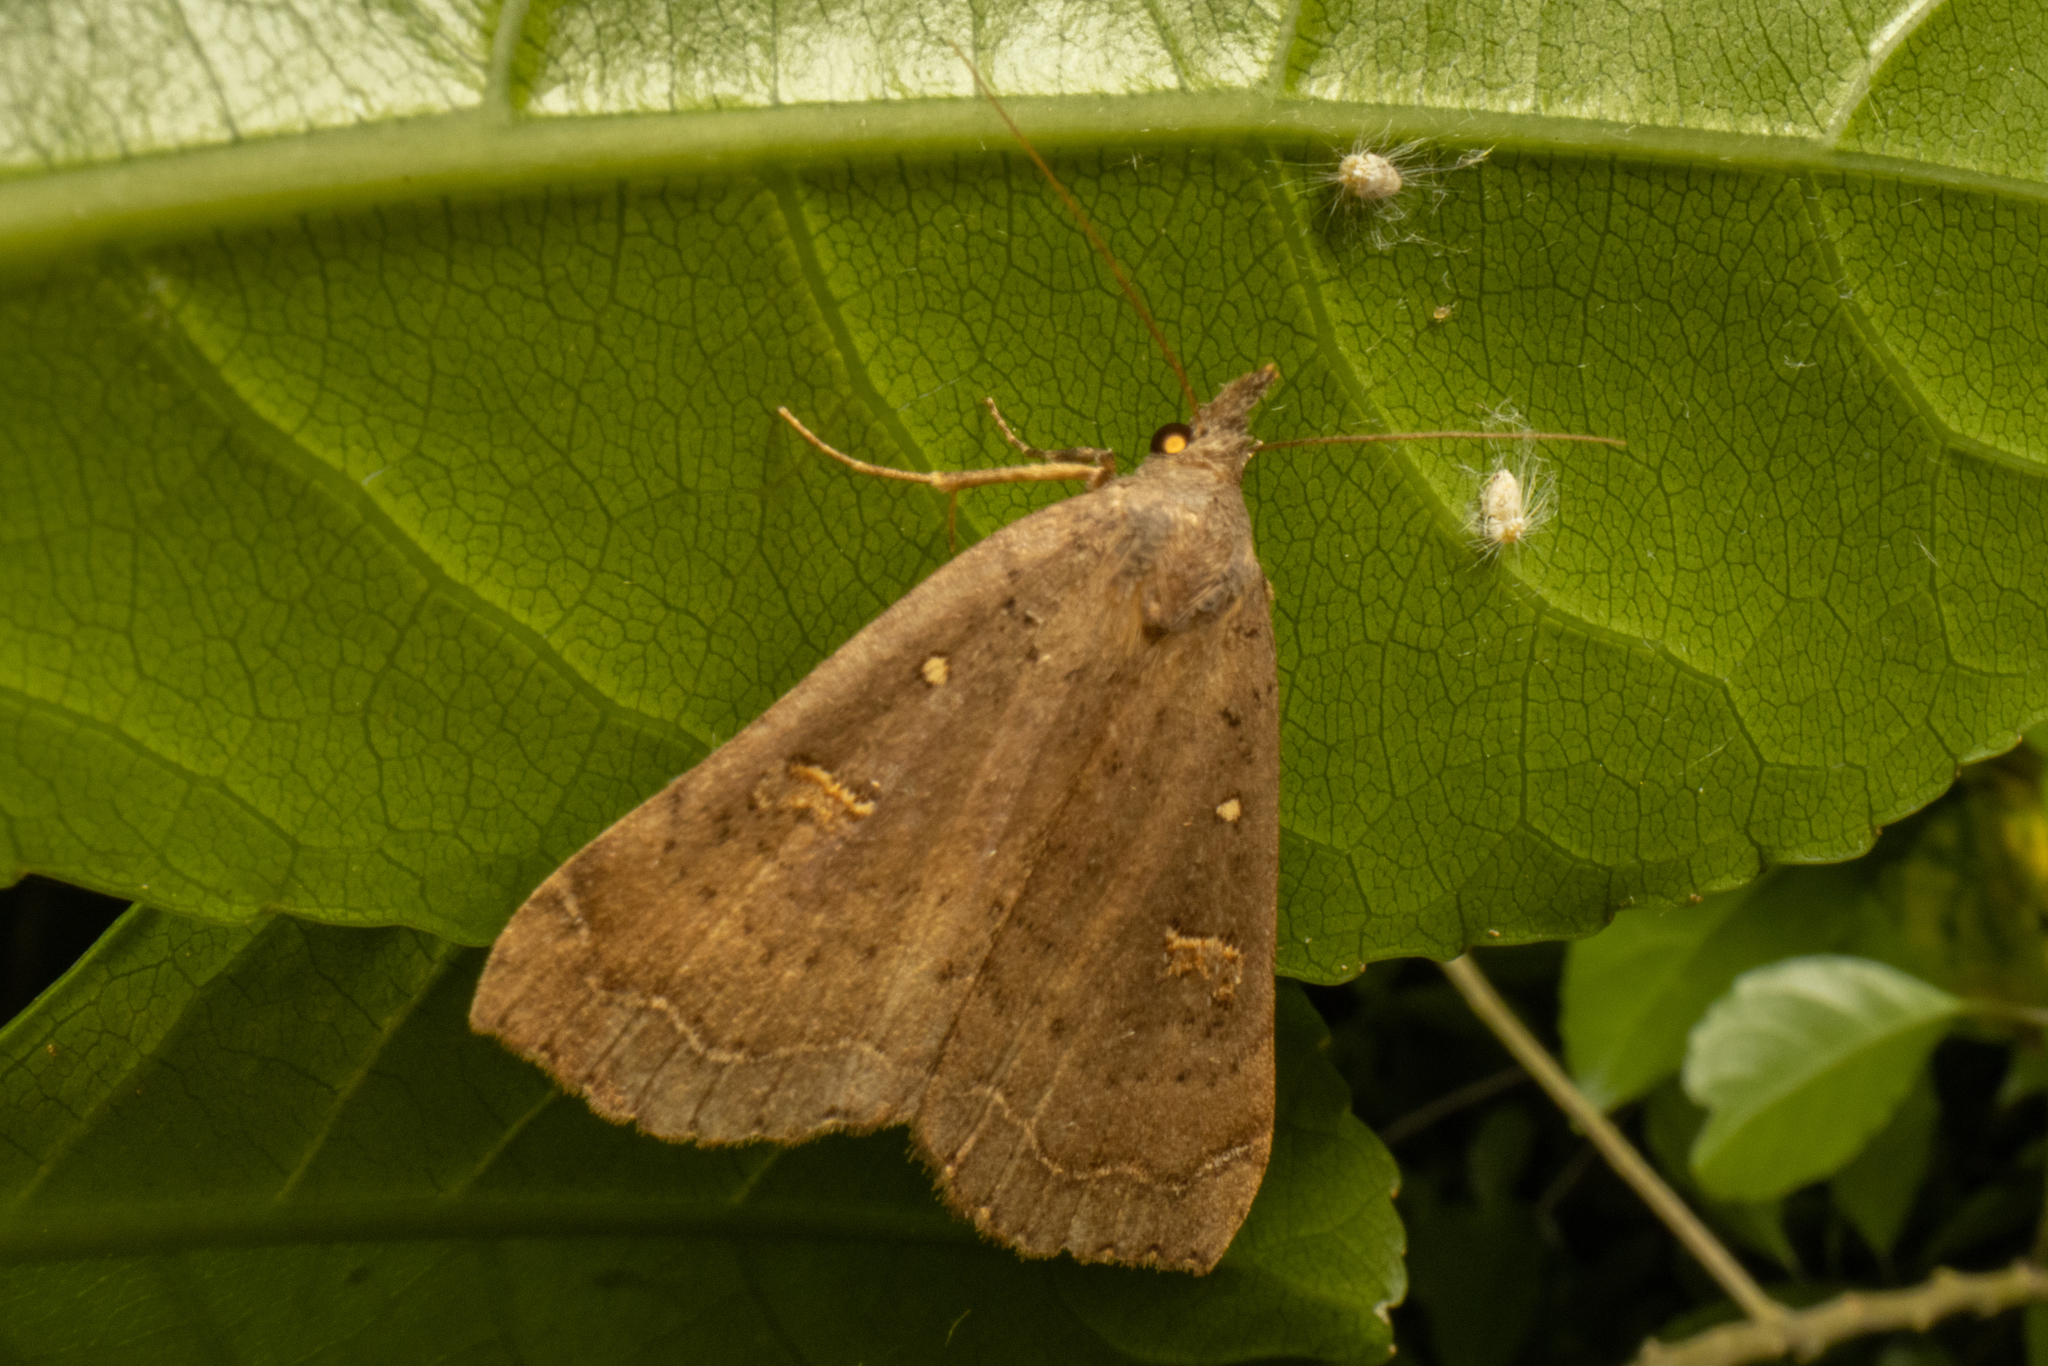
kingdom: Animalia
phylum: Arthropoda
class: Insecta
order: Lepidoptera
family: Erebidae
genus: Rhapsa
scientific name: Rhapsa scotosialis
